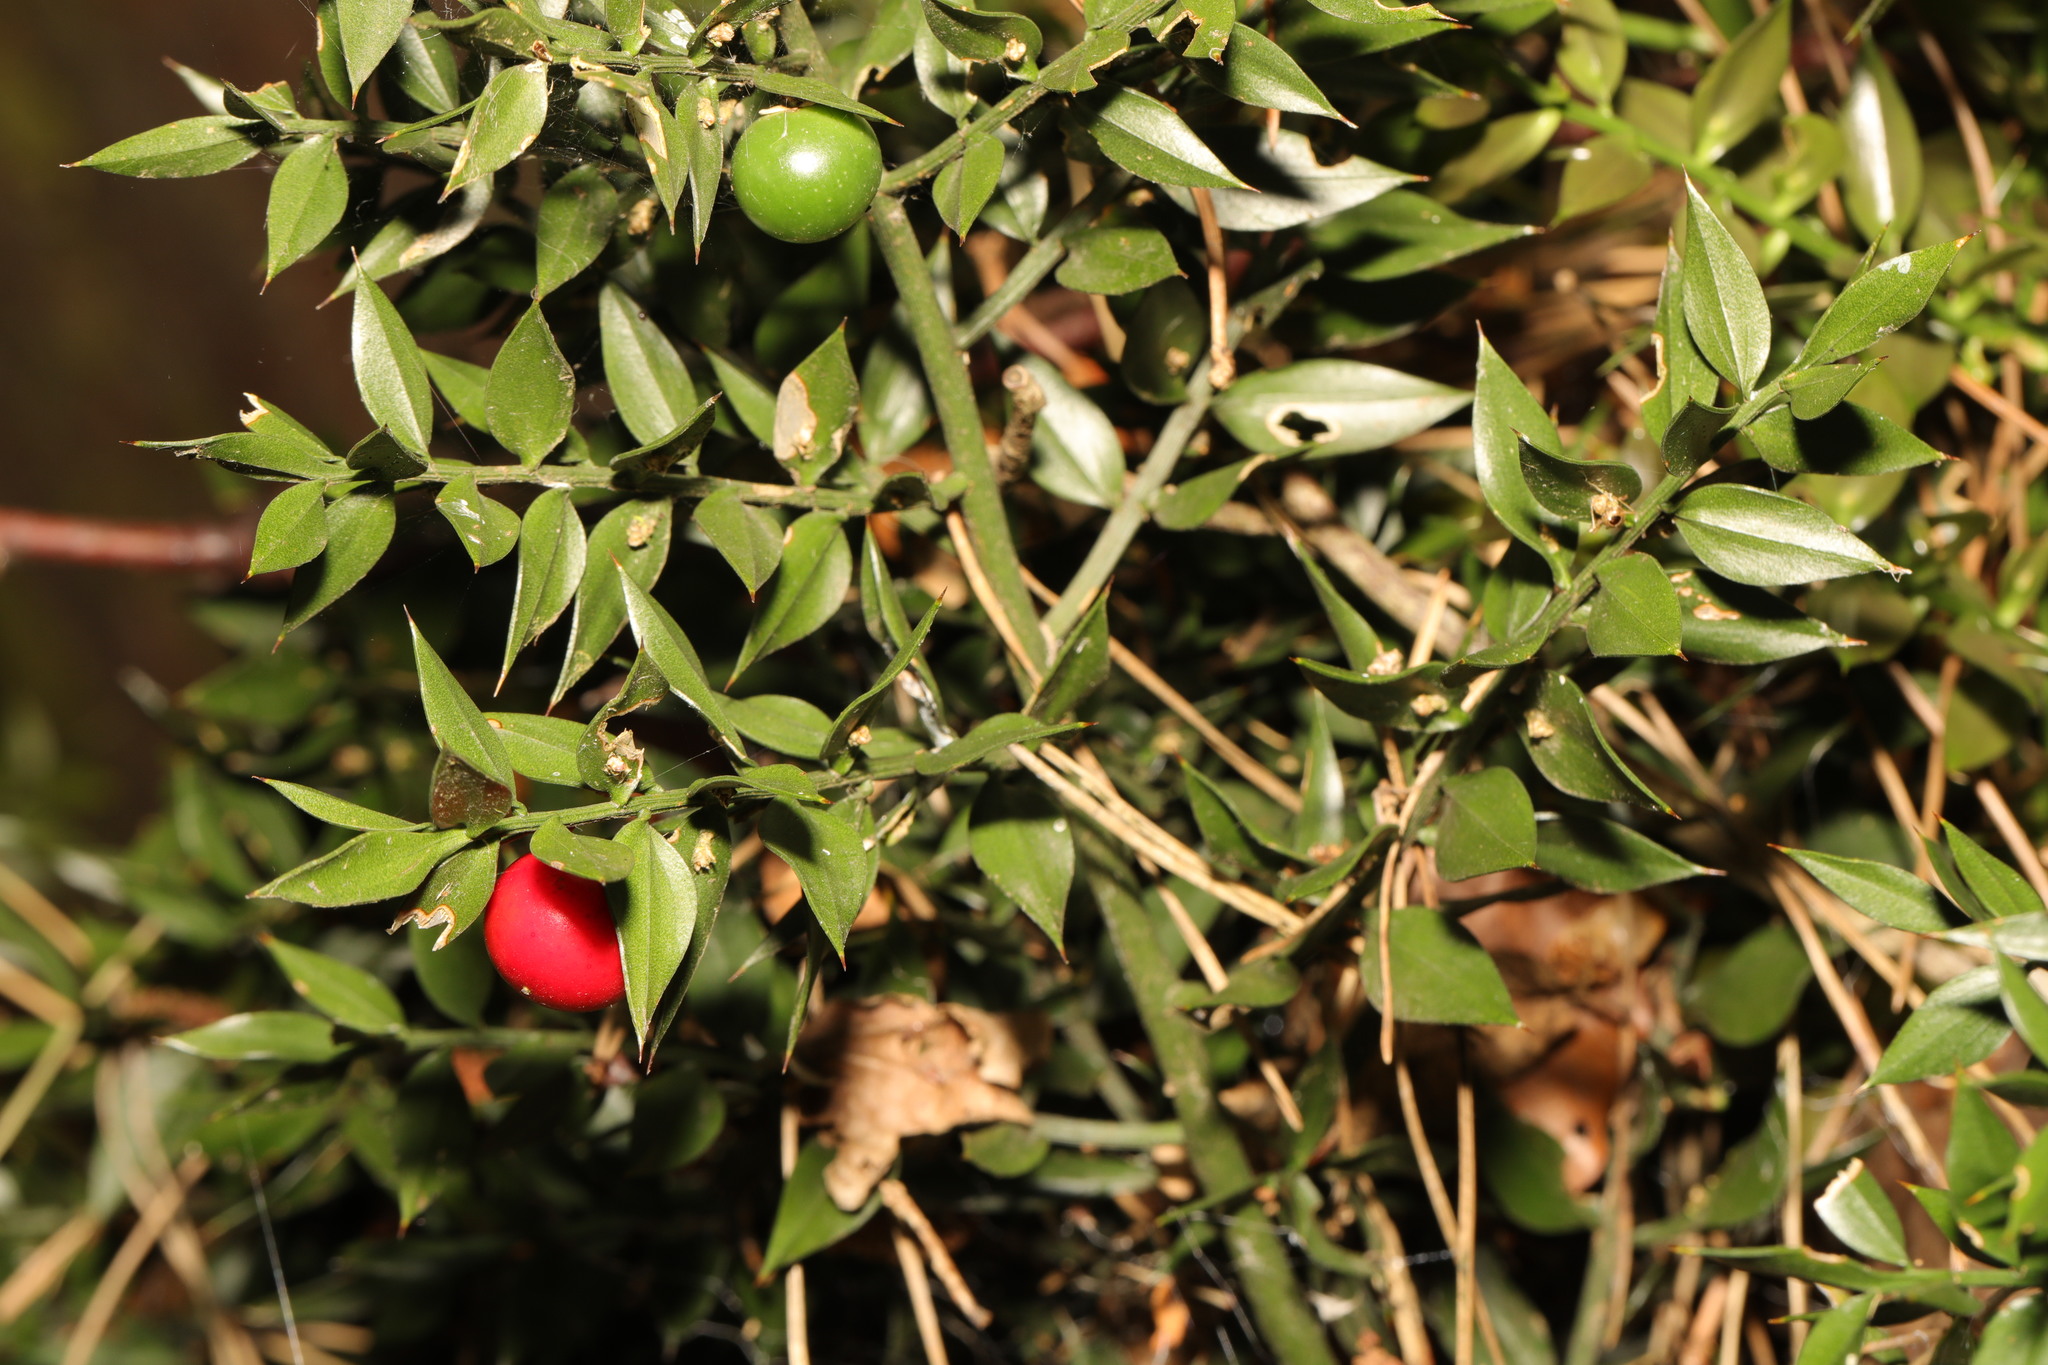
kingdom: Plantae
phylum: Tracheophyta
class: Liliopsida
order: Asparagales
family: Asparagaceae
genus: Ruscus
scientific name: Ruscus aculeatus
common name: Butcher's-broom
